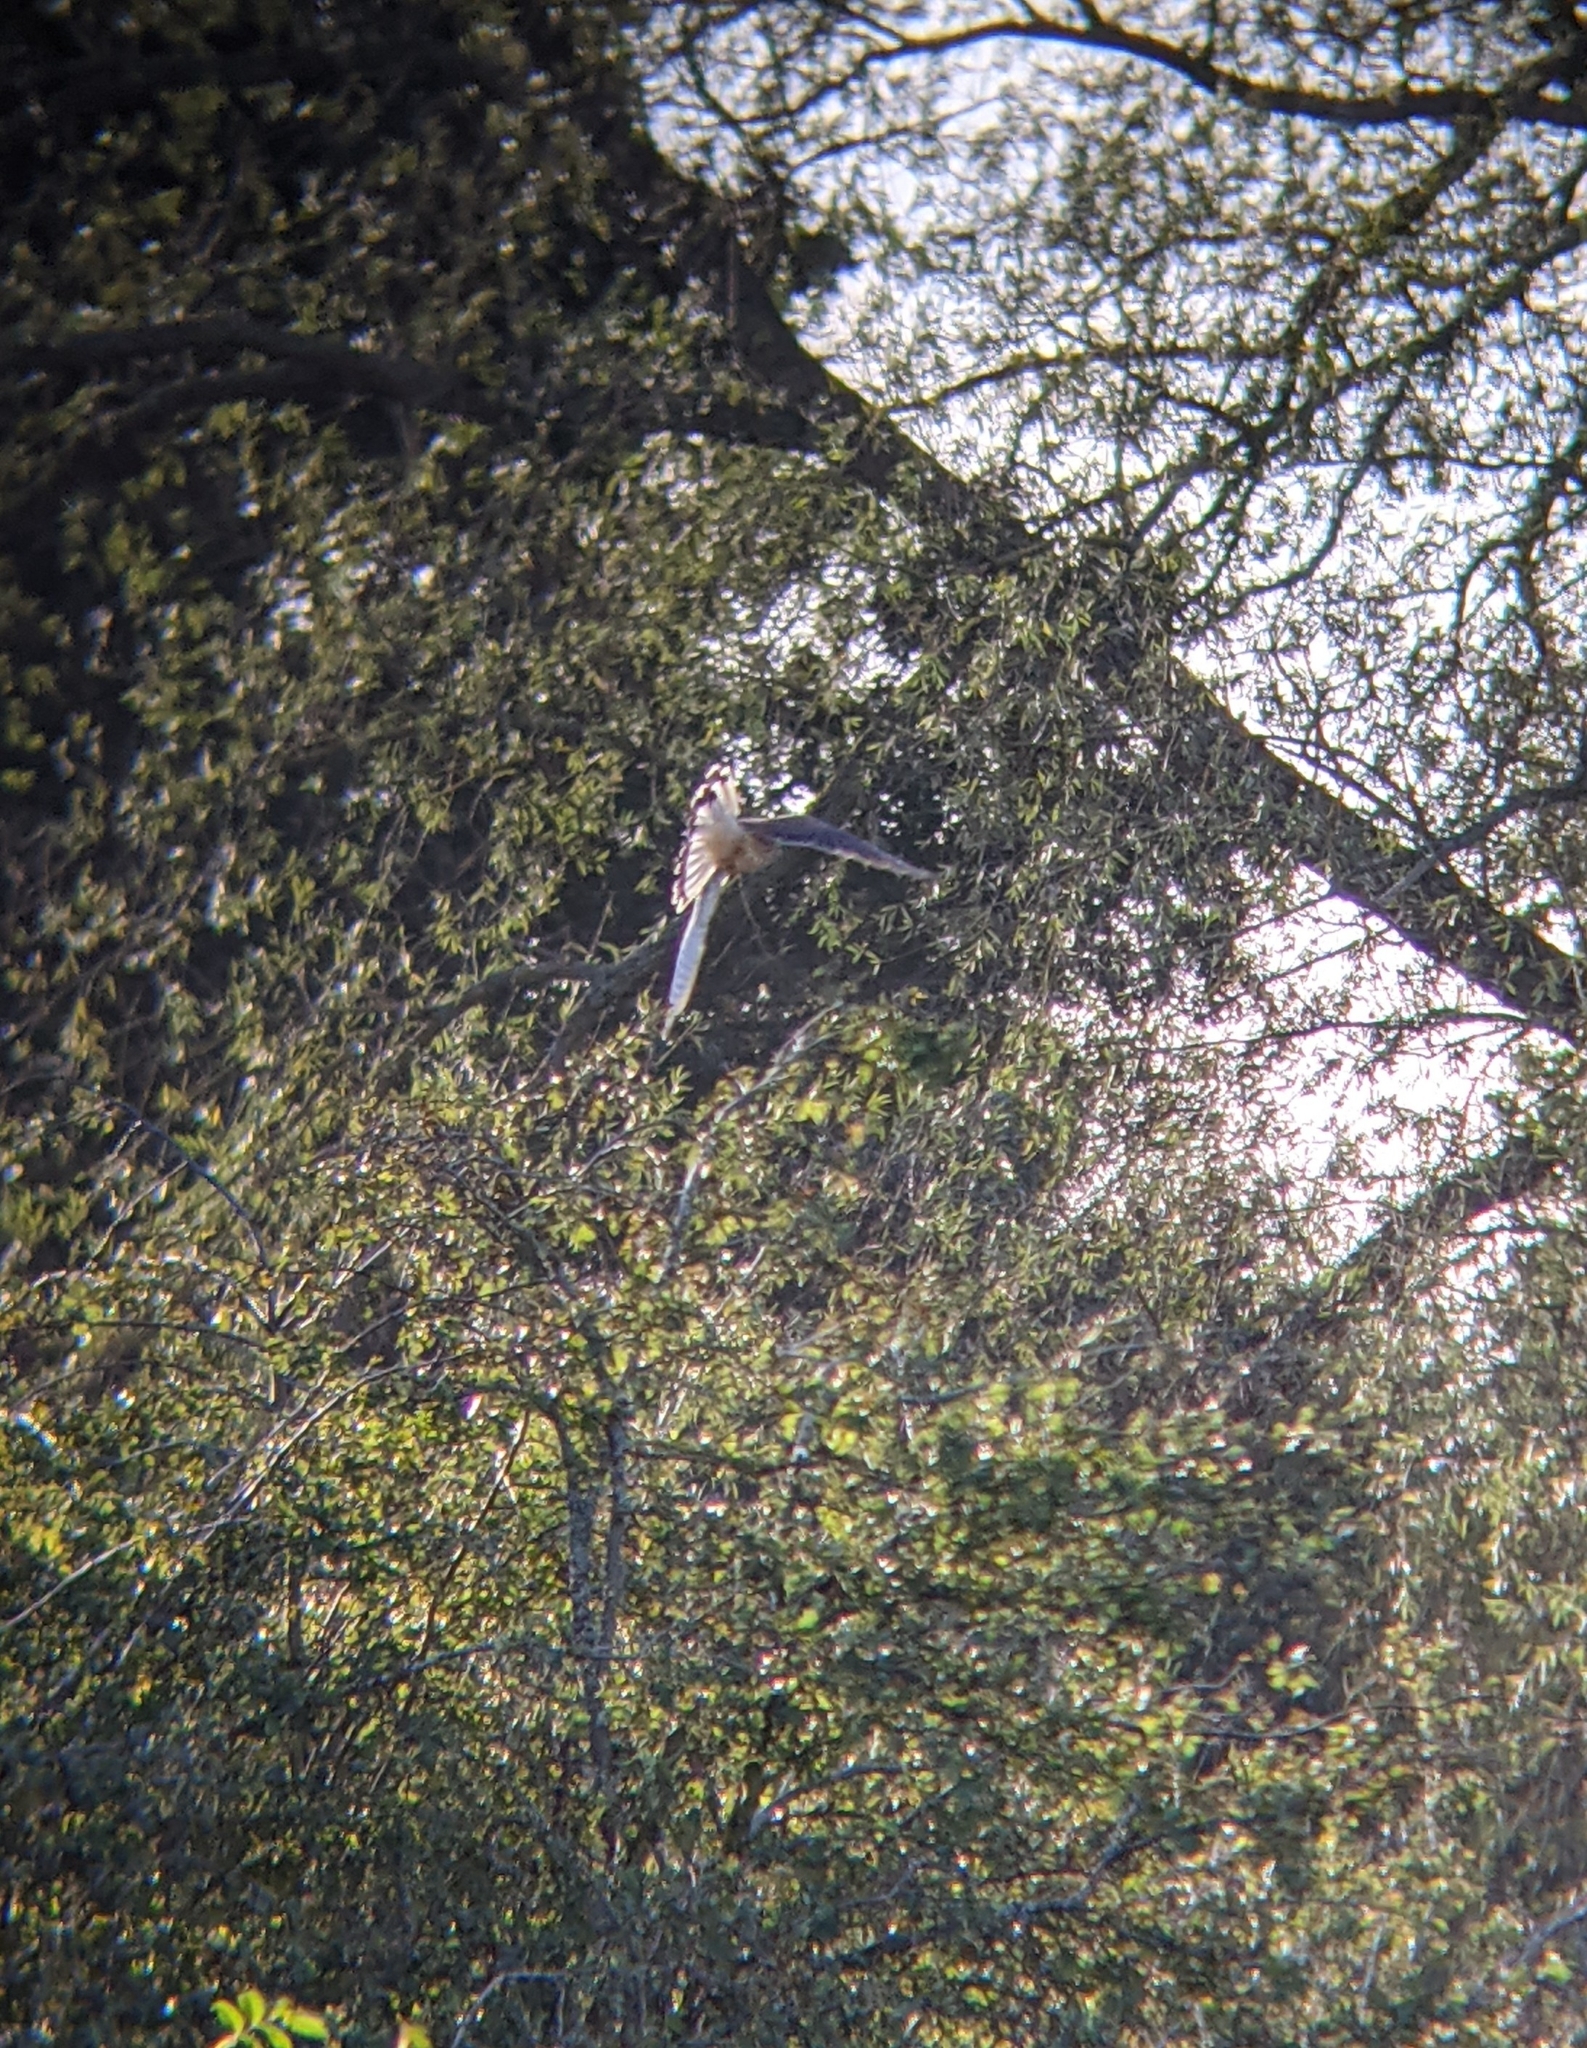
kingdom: Animalia
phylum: Chordata
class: Aves
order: Falconiformes
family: Falconidae
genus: Falco
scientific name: Falco tinnunculus
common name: Common kestrel
